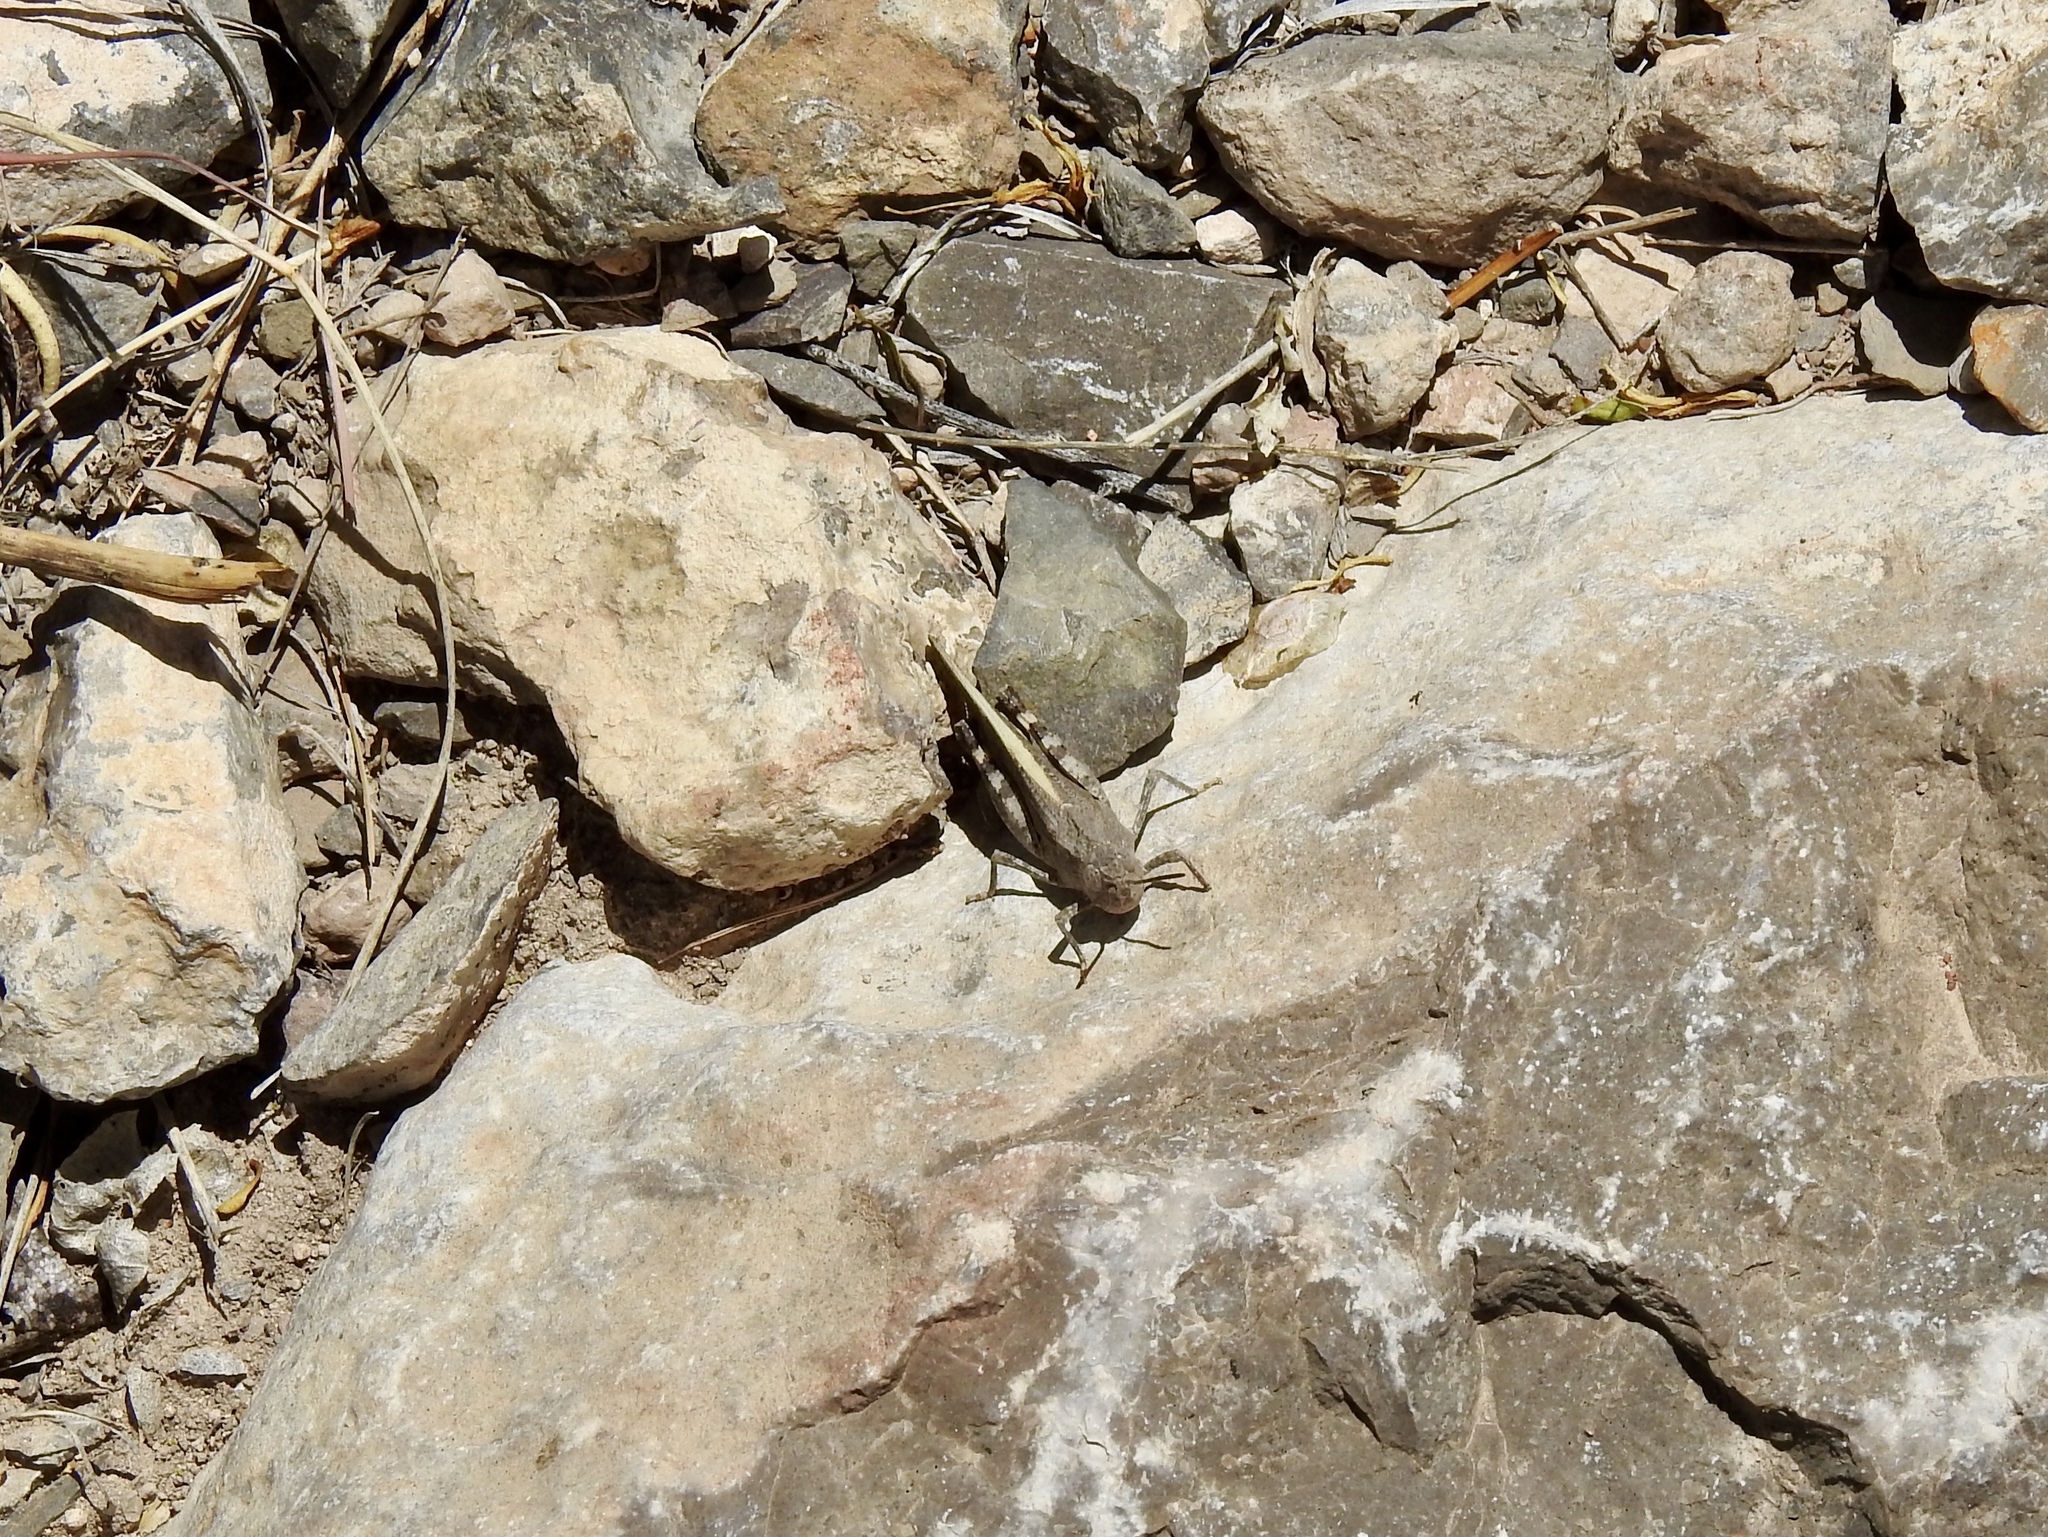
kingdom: Animalia
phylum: Arthropoda
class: Insecta
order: Orthoptera
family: Acrididae
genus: Arphia
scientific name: Arphia conspersa
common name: Speckle-winged rangeland grasshopper
